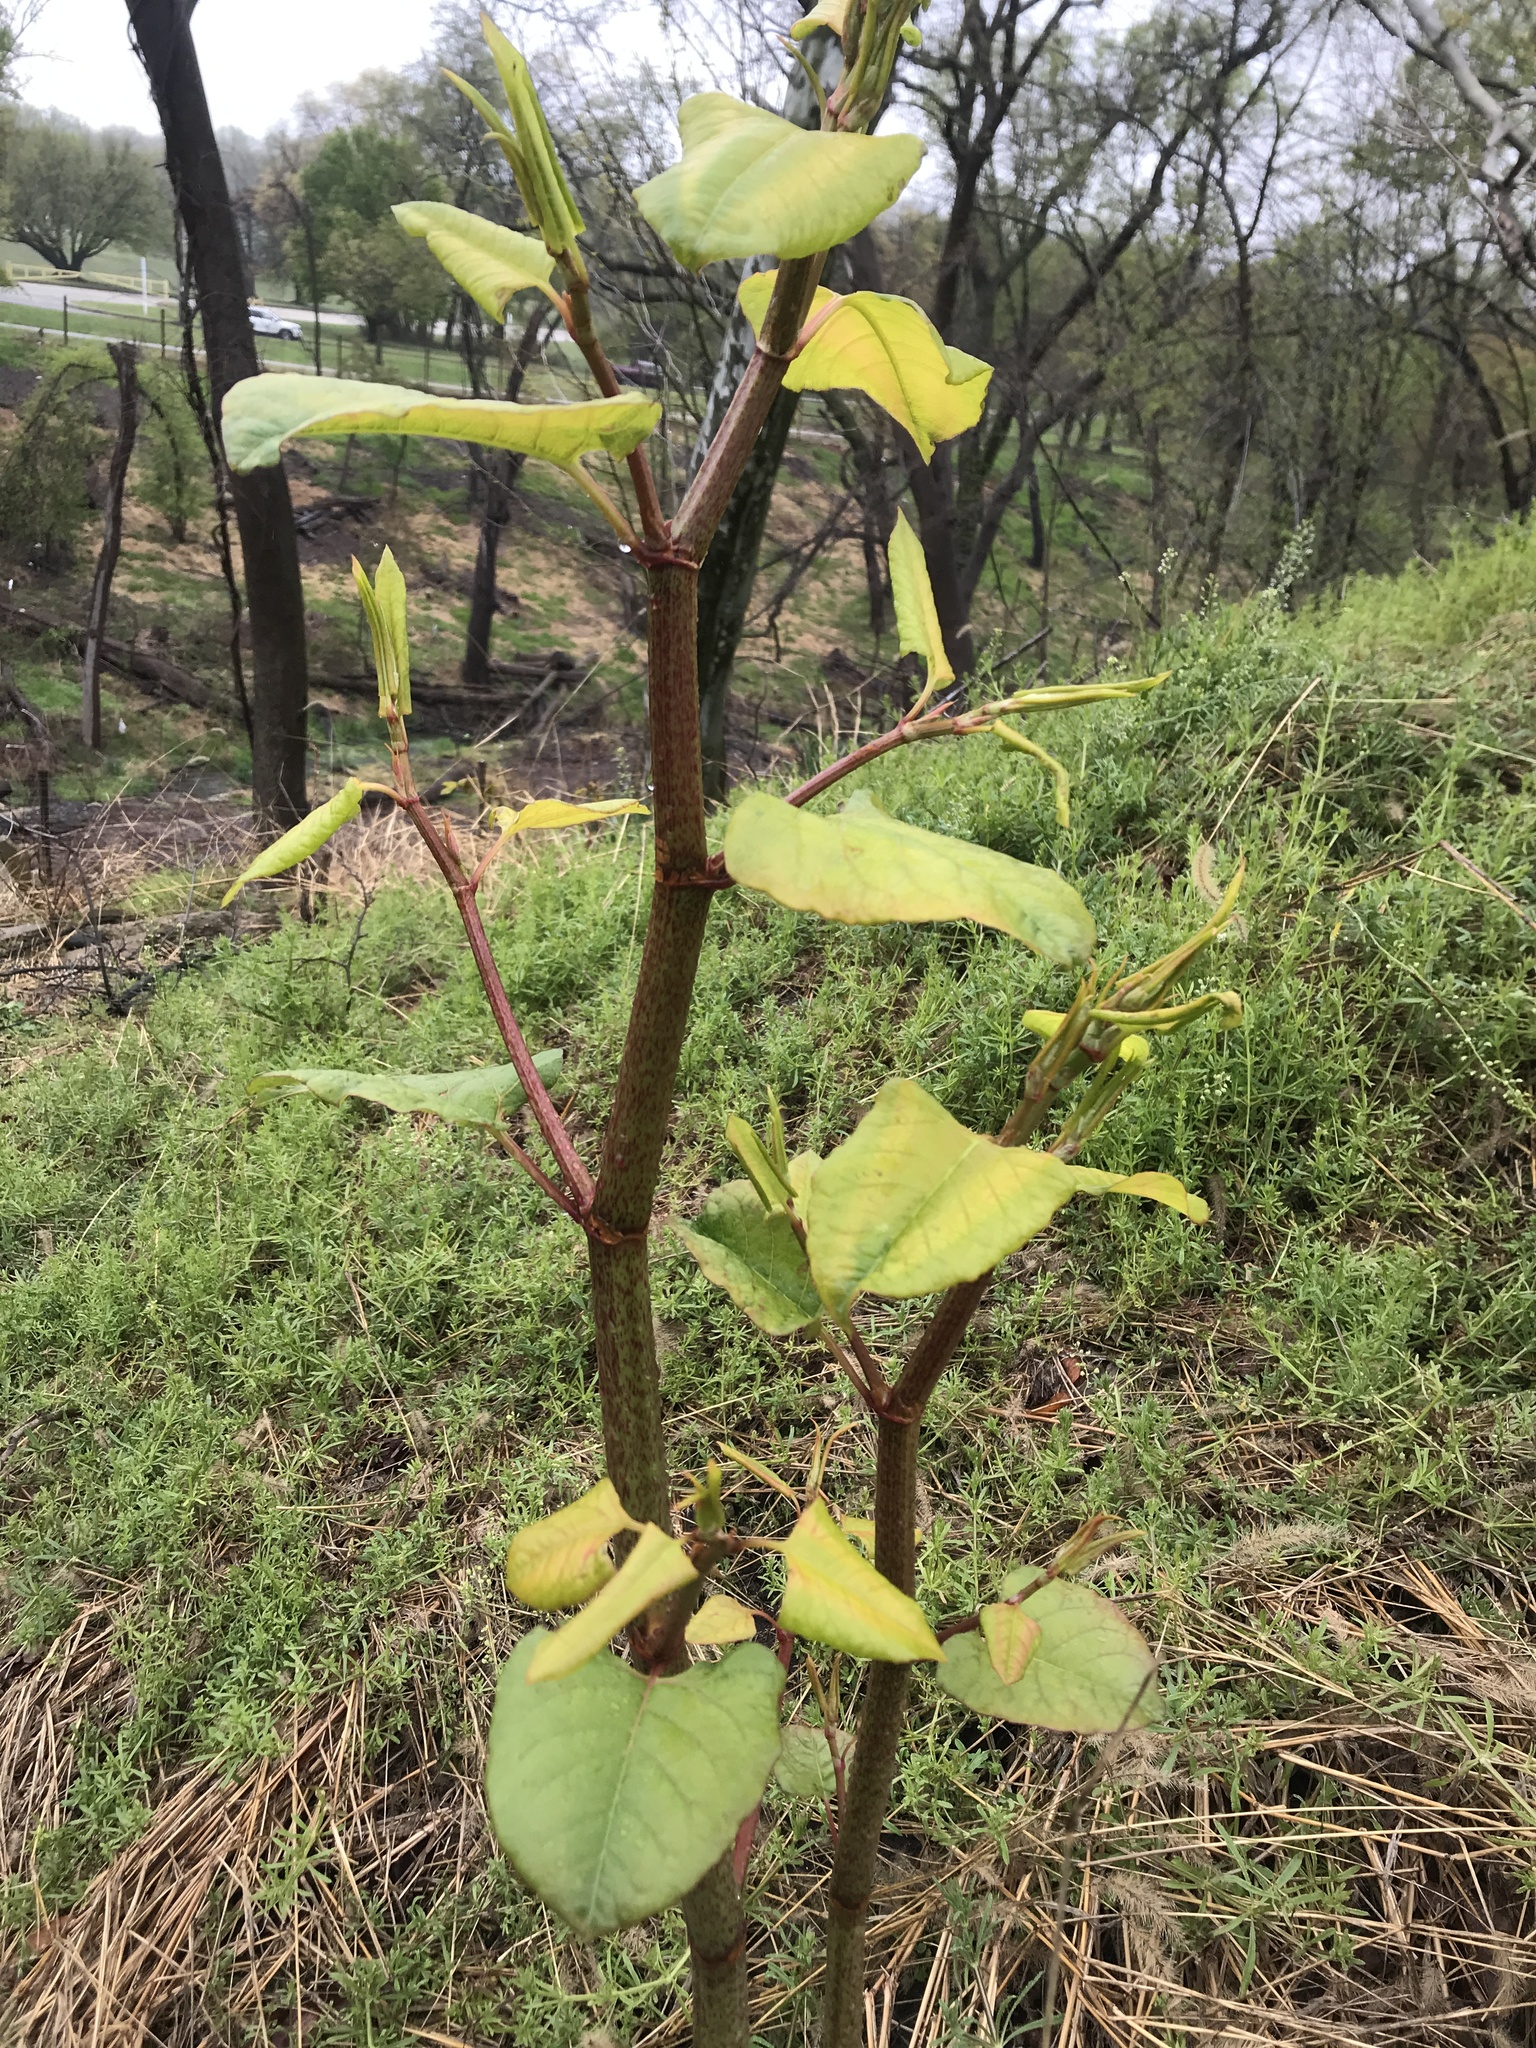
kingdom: Plantae
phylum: Tracheophyta
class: Magnoliopsida
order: Caryophyllales
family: Polygonaceae
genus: Reynoutria
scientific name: Reynoutria japonica
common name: Japanese knotweed
